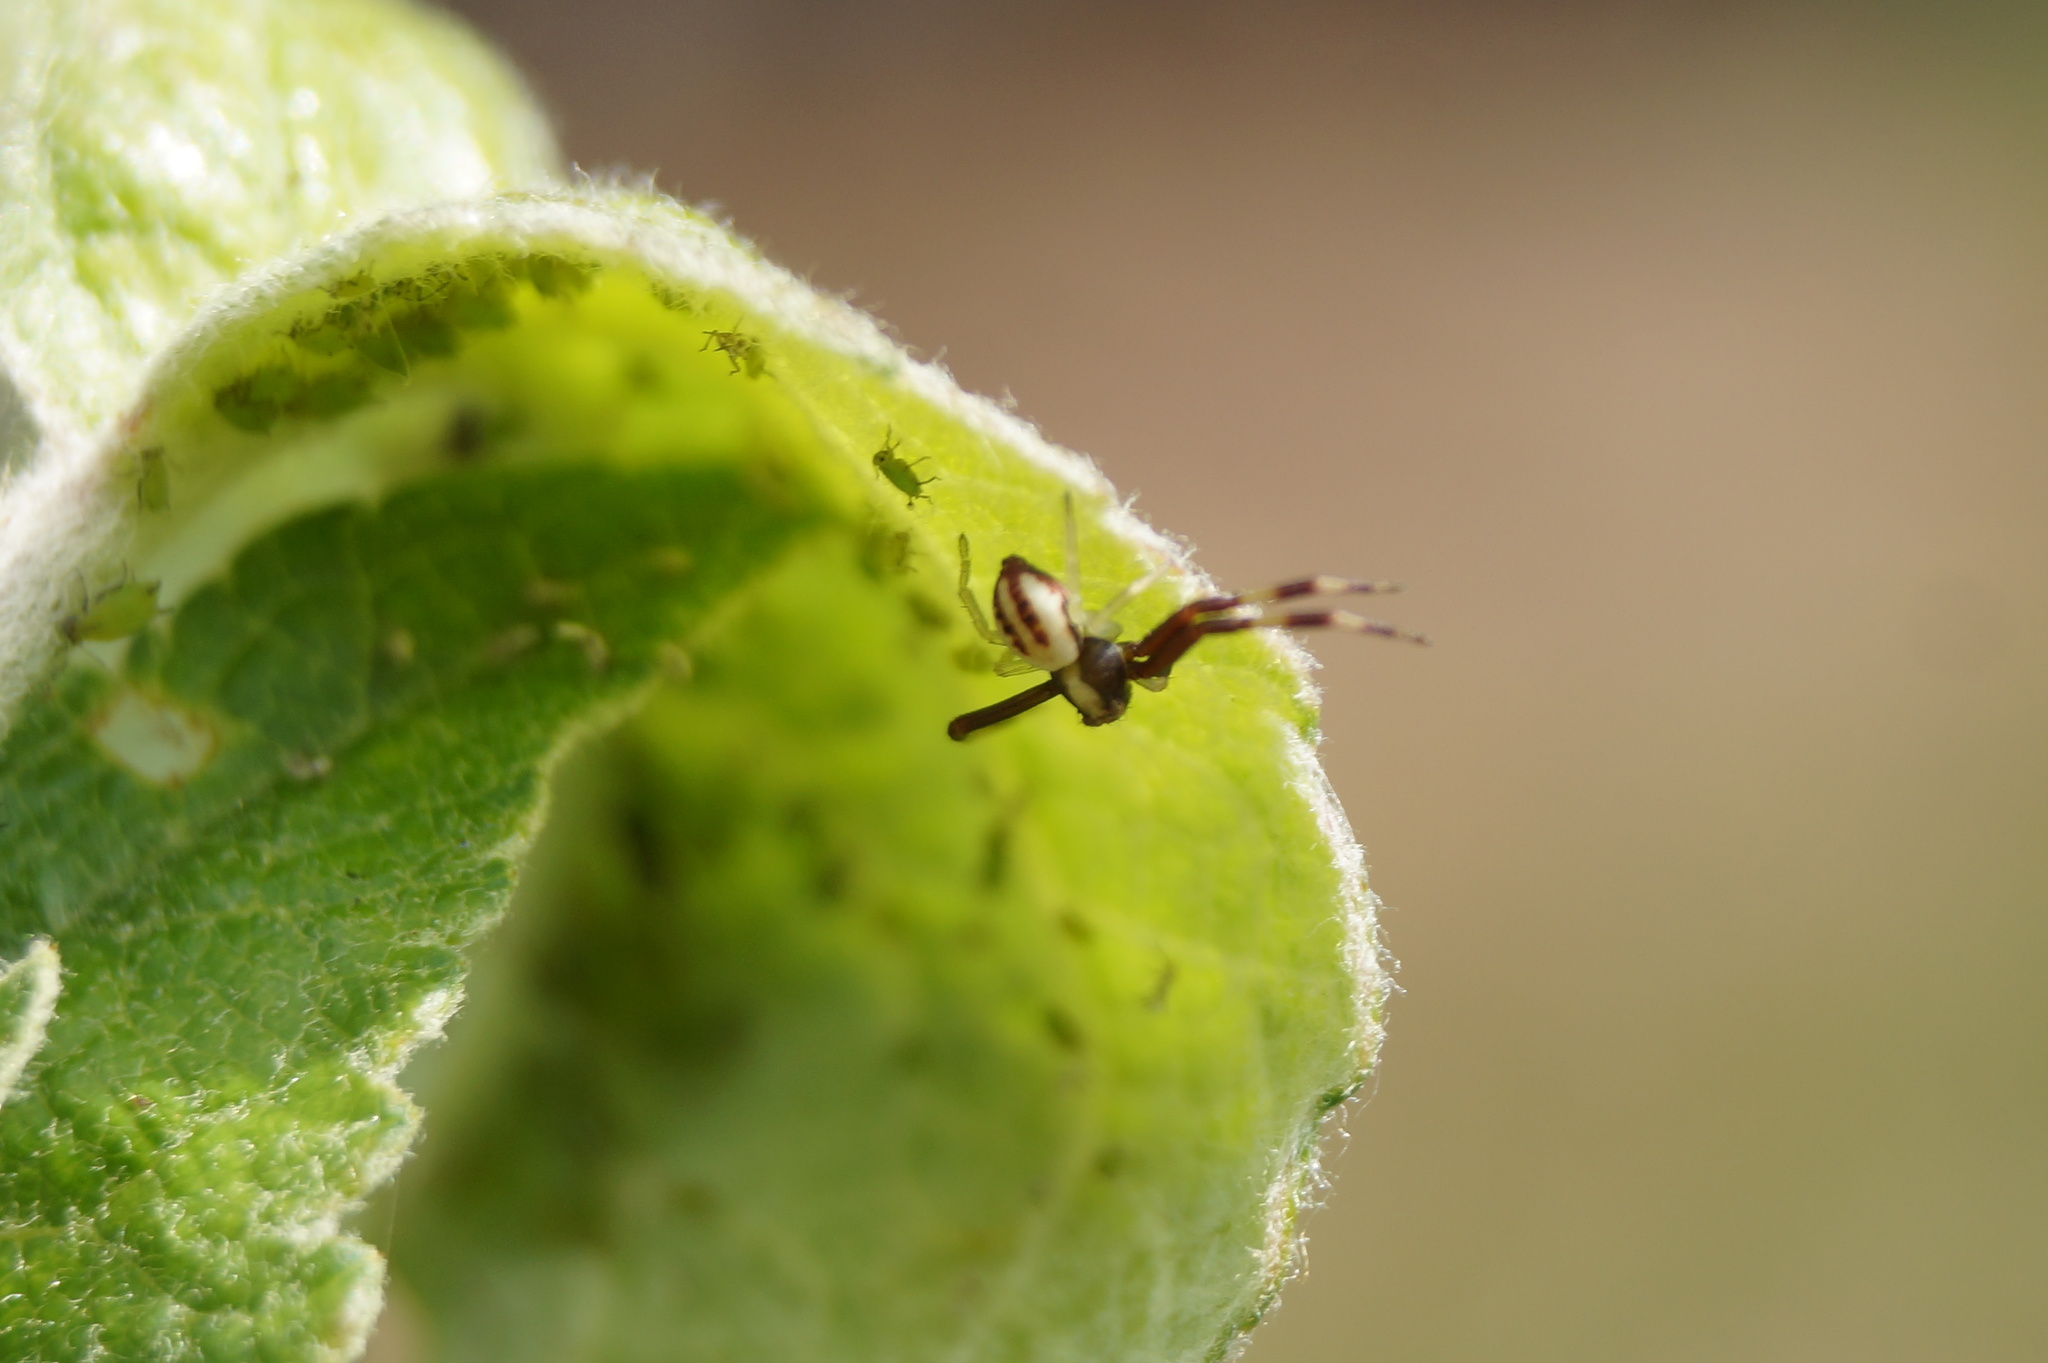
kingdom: Animalia
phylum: Arthropoda
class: Arachnida
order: Araneae
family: Thomisidae
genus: Misumena
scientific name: Misumena vatia
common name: Goldenrod crab spider
